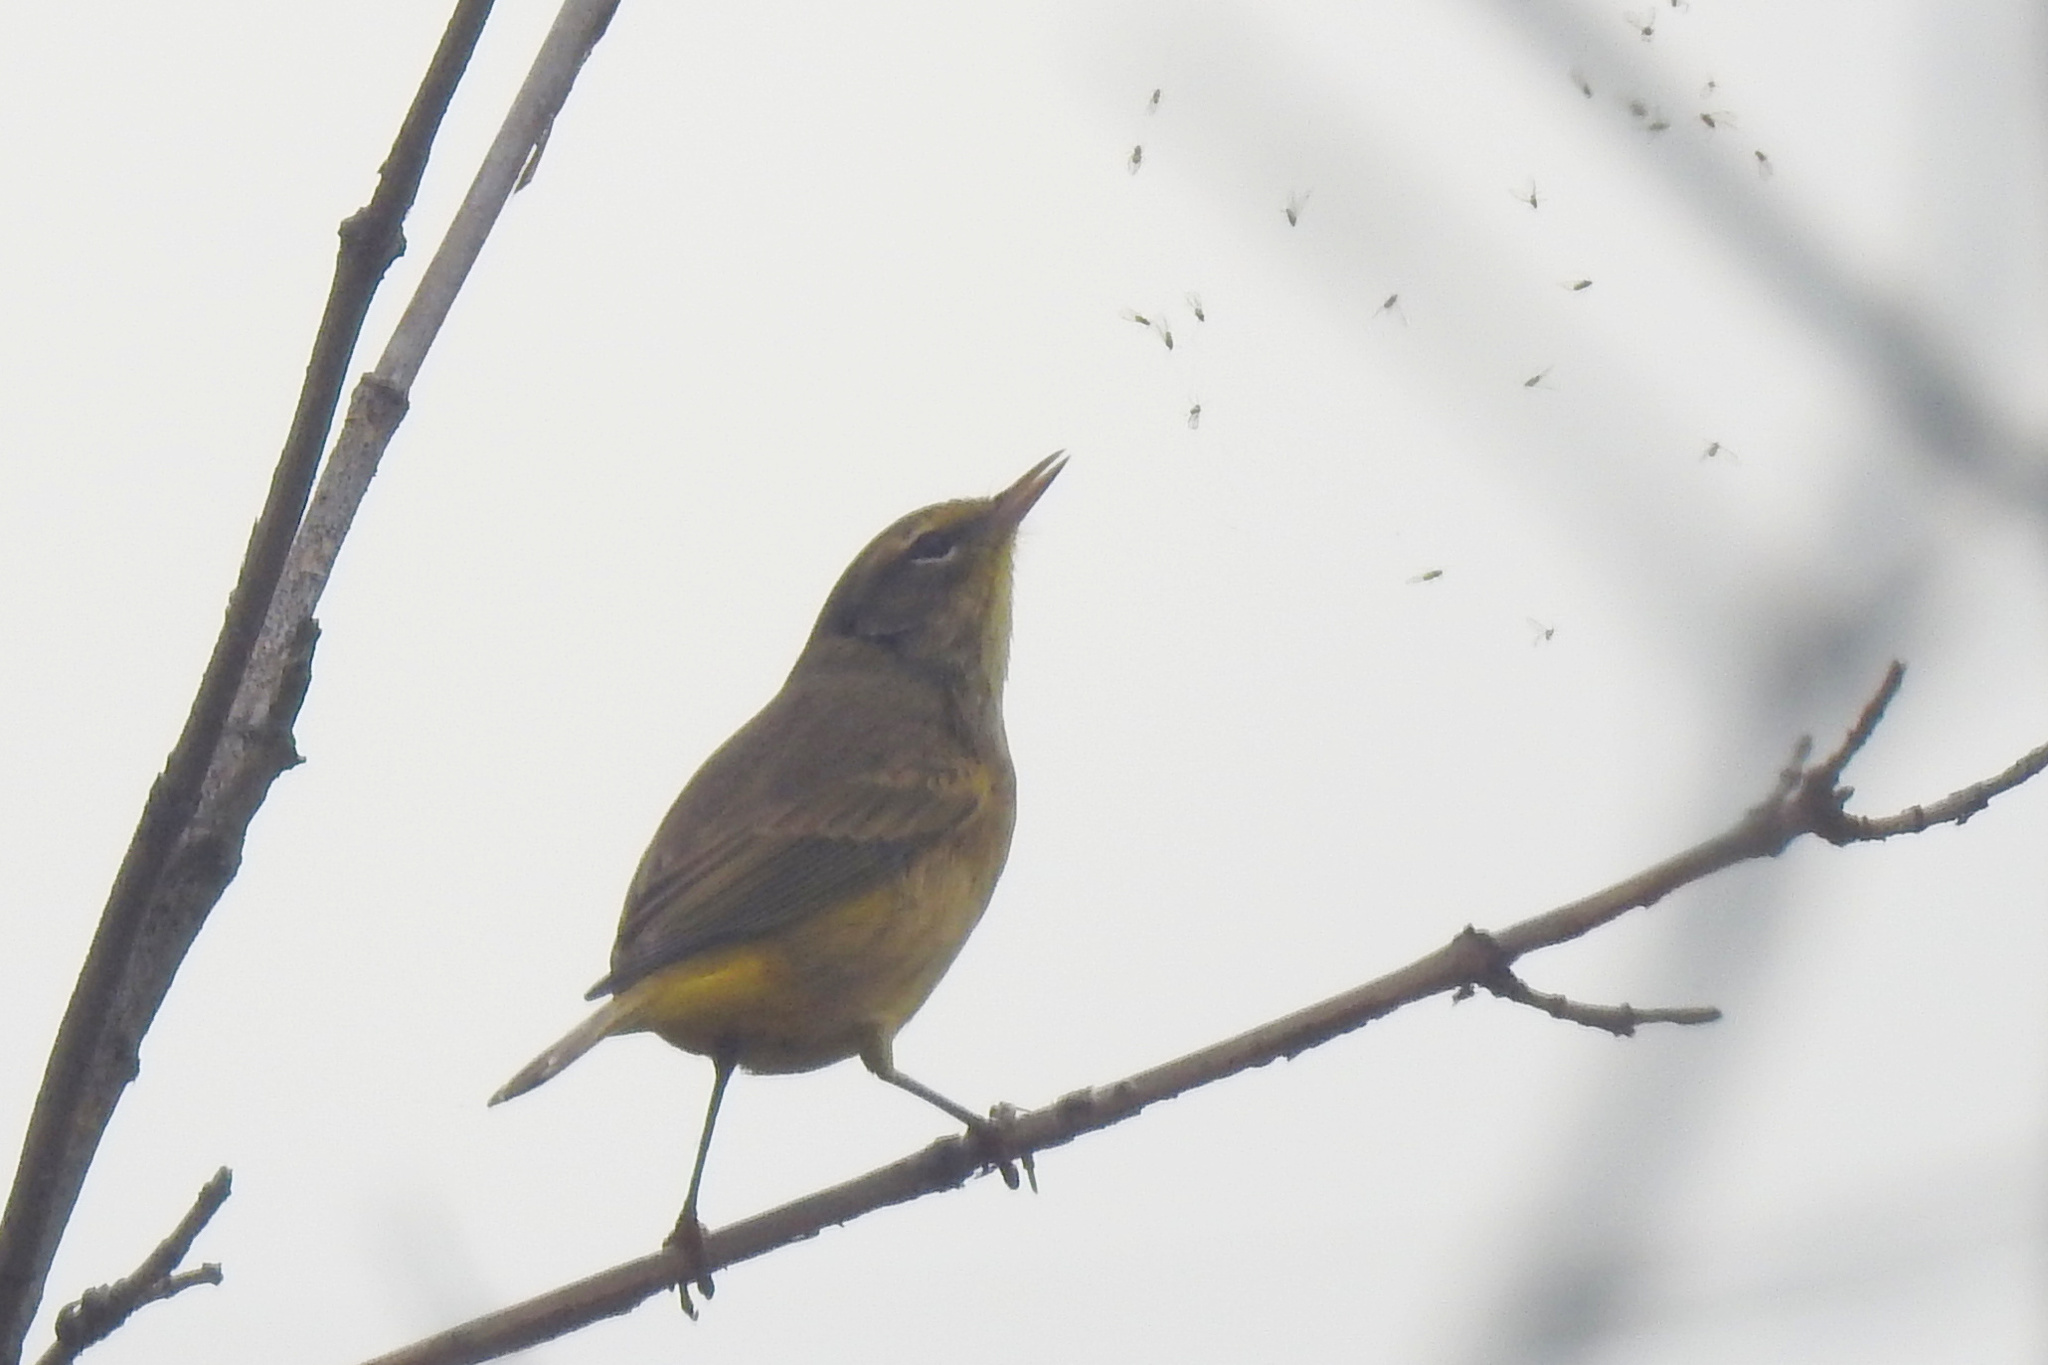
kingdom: Animalia
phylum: Chordata
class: Aves
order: Passeriformes
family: Parulidae
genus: Setophaga
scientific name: Setophaga palmarum
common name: Palm warbler
